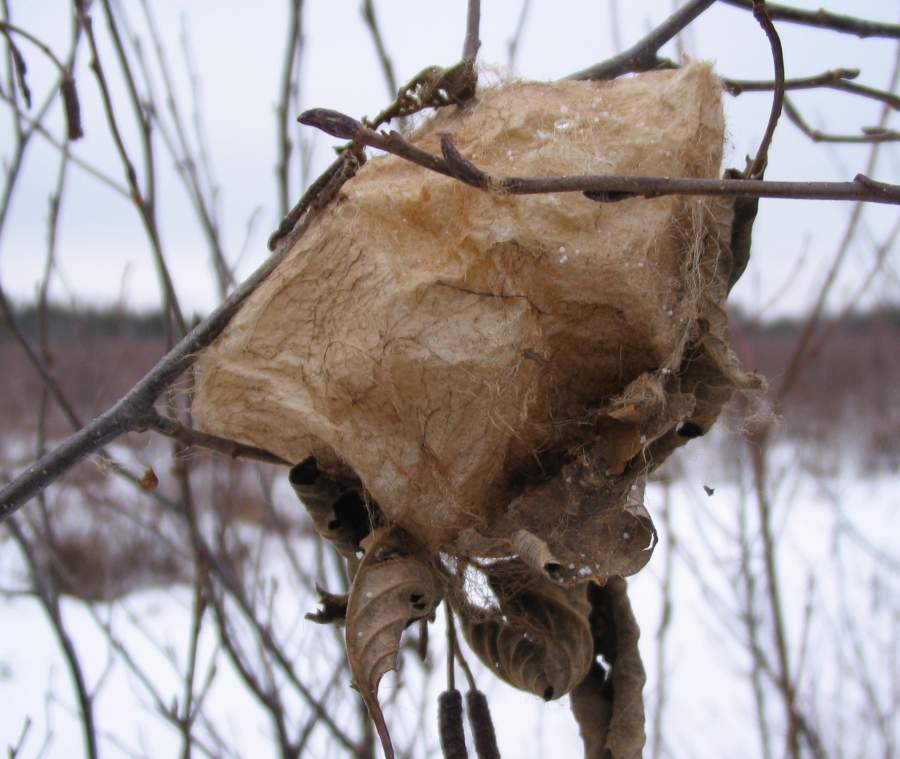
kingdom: Animalia
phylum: Arthropoda
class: Insecta
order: Lepidoptera
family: Saturniidae
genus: Hyalophora
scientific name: Hyalophora cecropia
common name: Cecropia silkmoth
